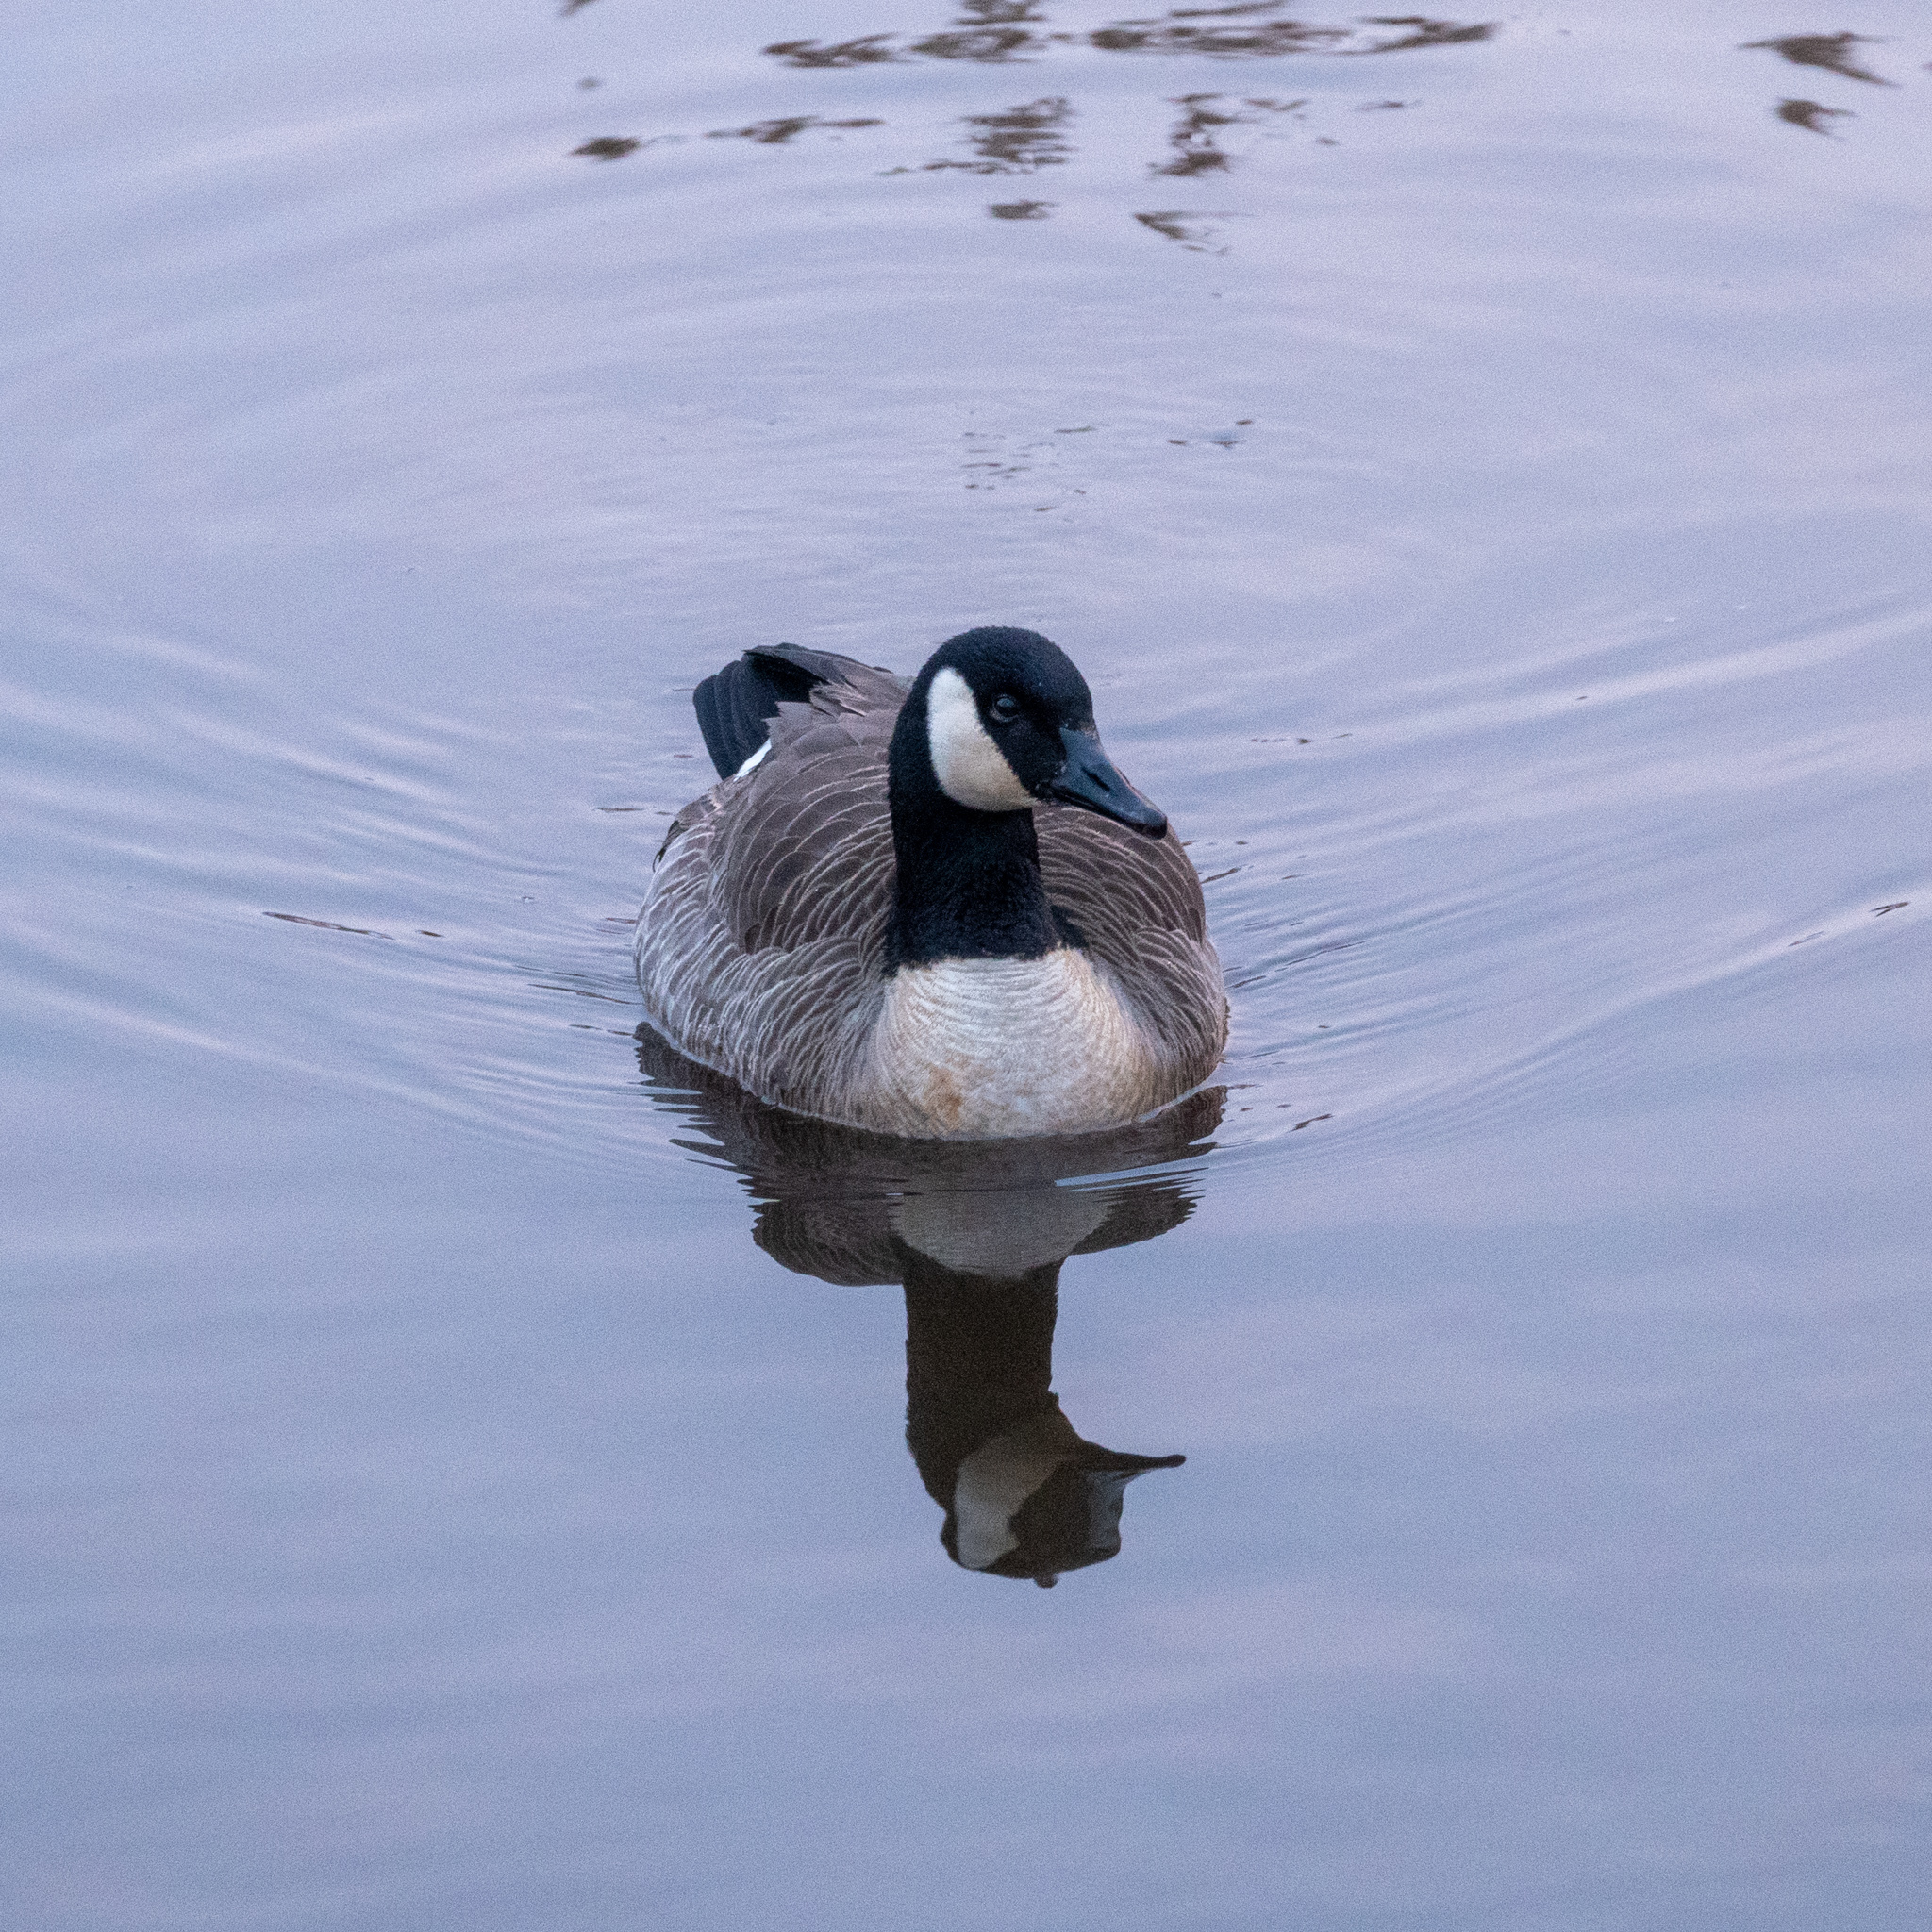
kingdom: Animalia
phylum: Chordata
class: Aves
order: Anseriformes
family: Anatidae
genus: Branta
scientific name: Branta canadensis
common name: Canada goose
